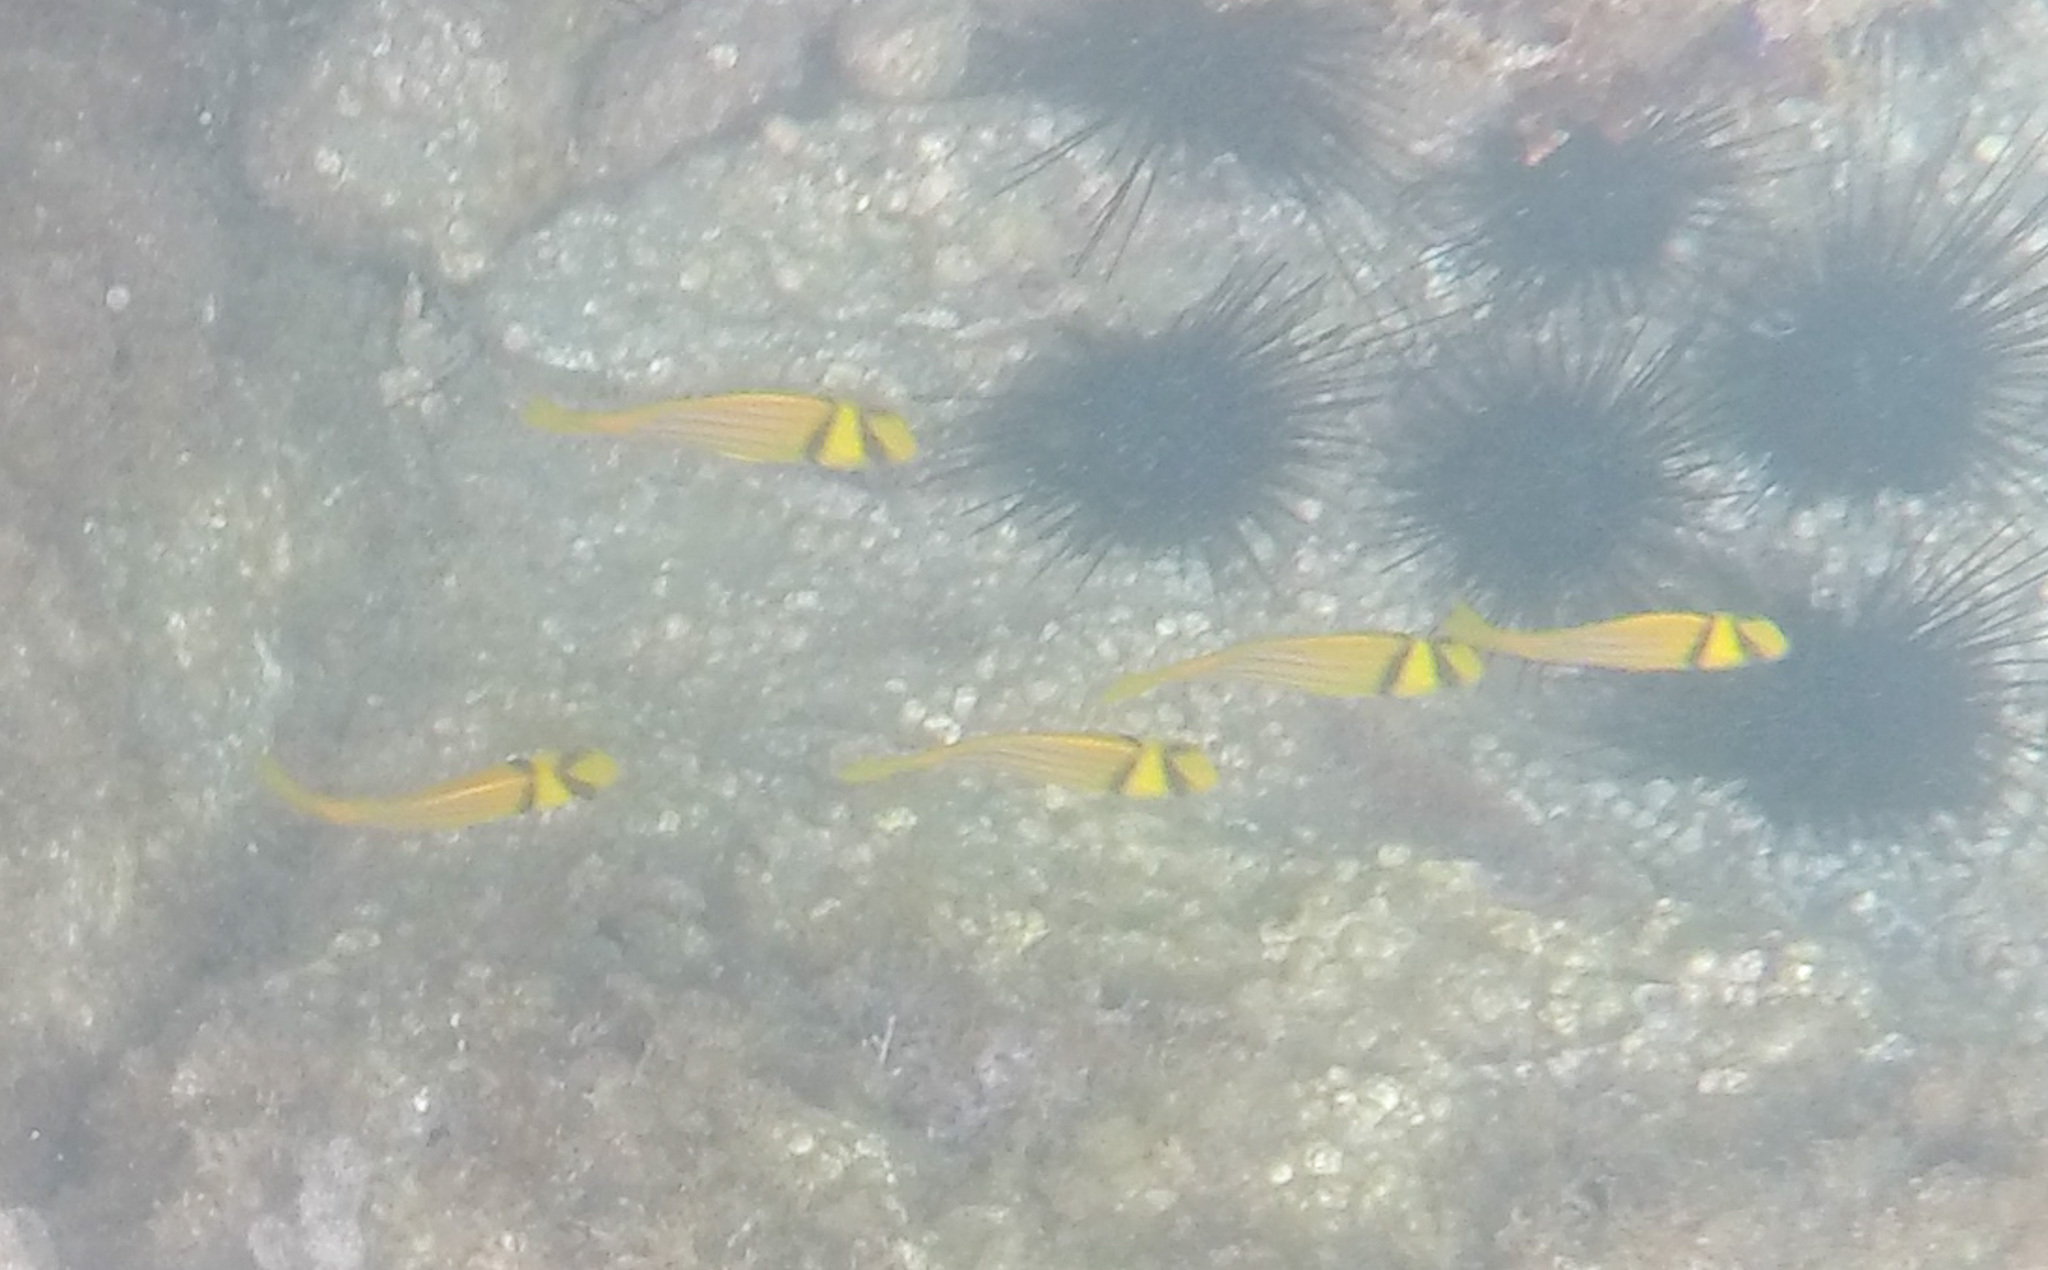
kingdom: Animalia
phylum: Chordata
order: Perciformes
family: Haemulidae
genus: Anisotremus
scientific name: Anisotremus taeniatus
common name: Catalina
